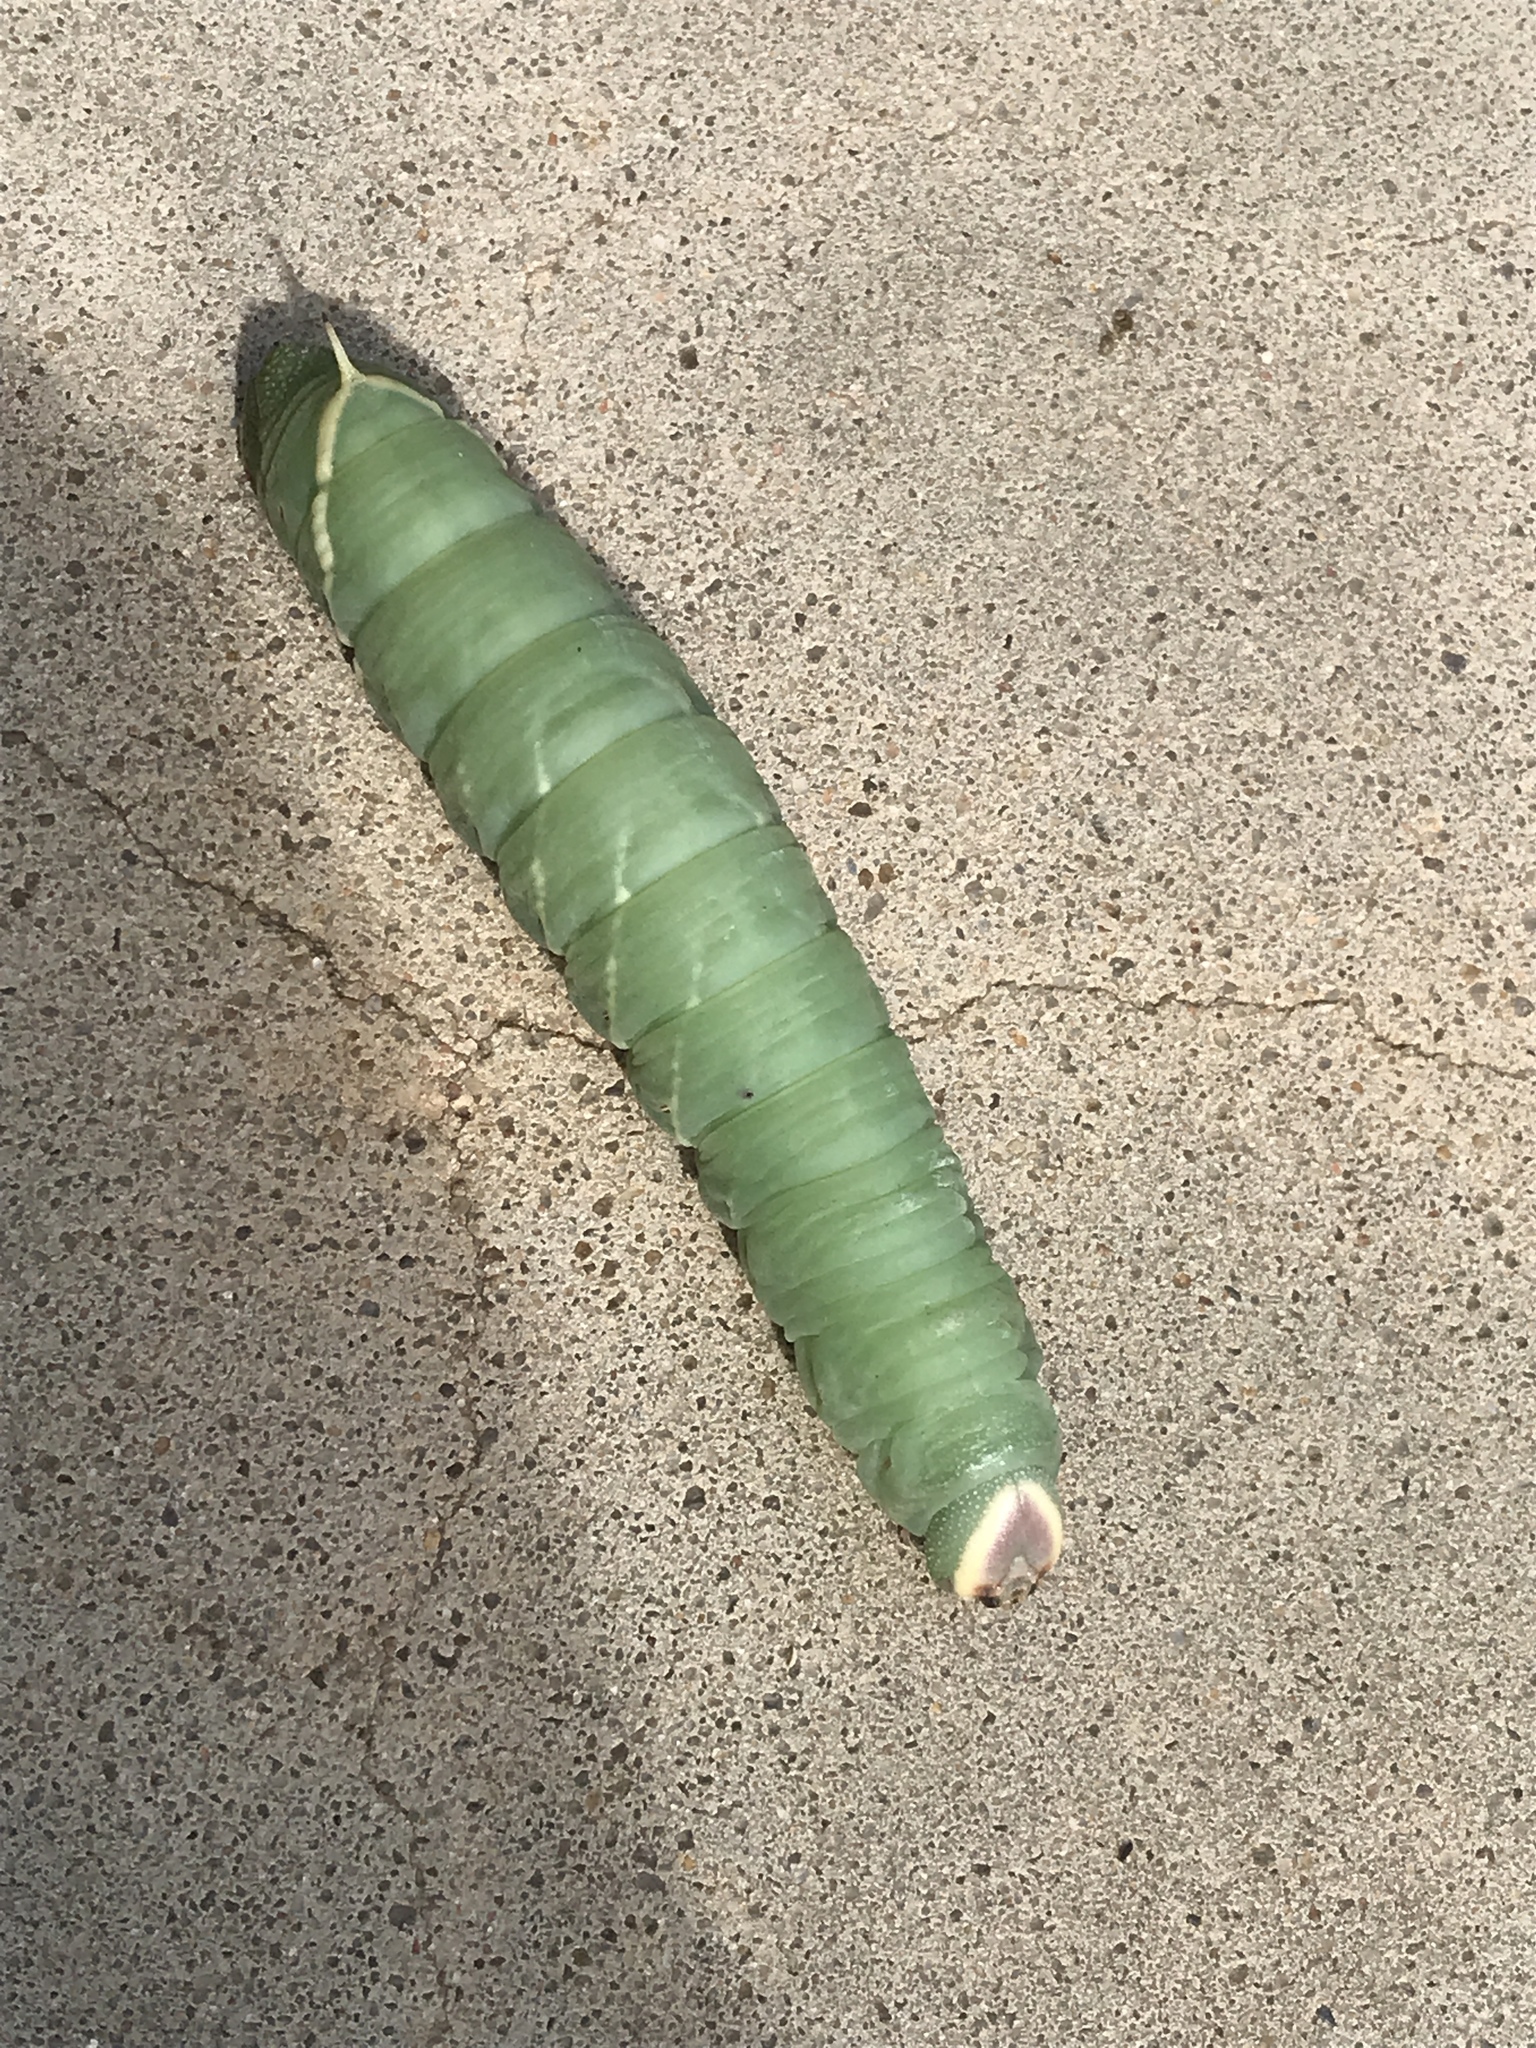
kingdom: Animalia
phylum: Arthropoda
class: Insecta
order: Lepidoptera
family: Sphingidae
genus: Pachysphinx
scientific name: Pachysphinx modesta
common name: Big poplar sphinx
